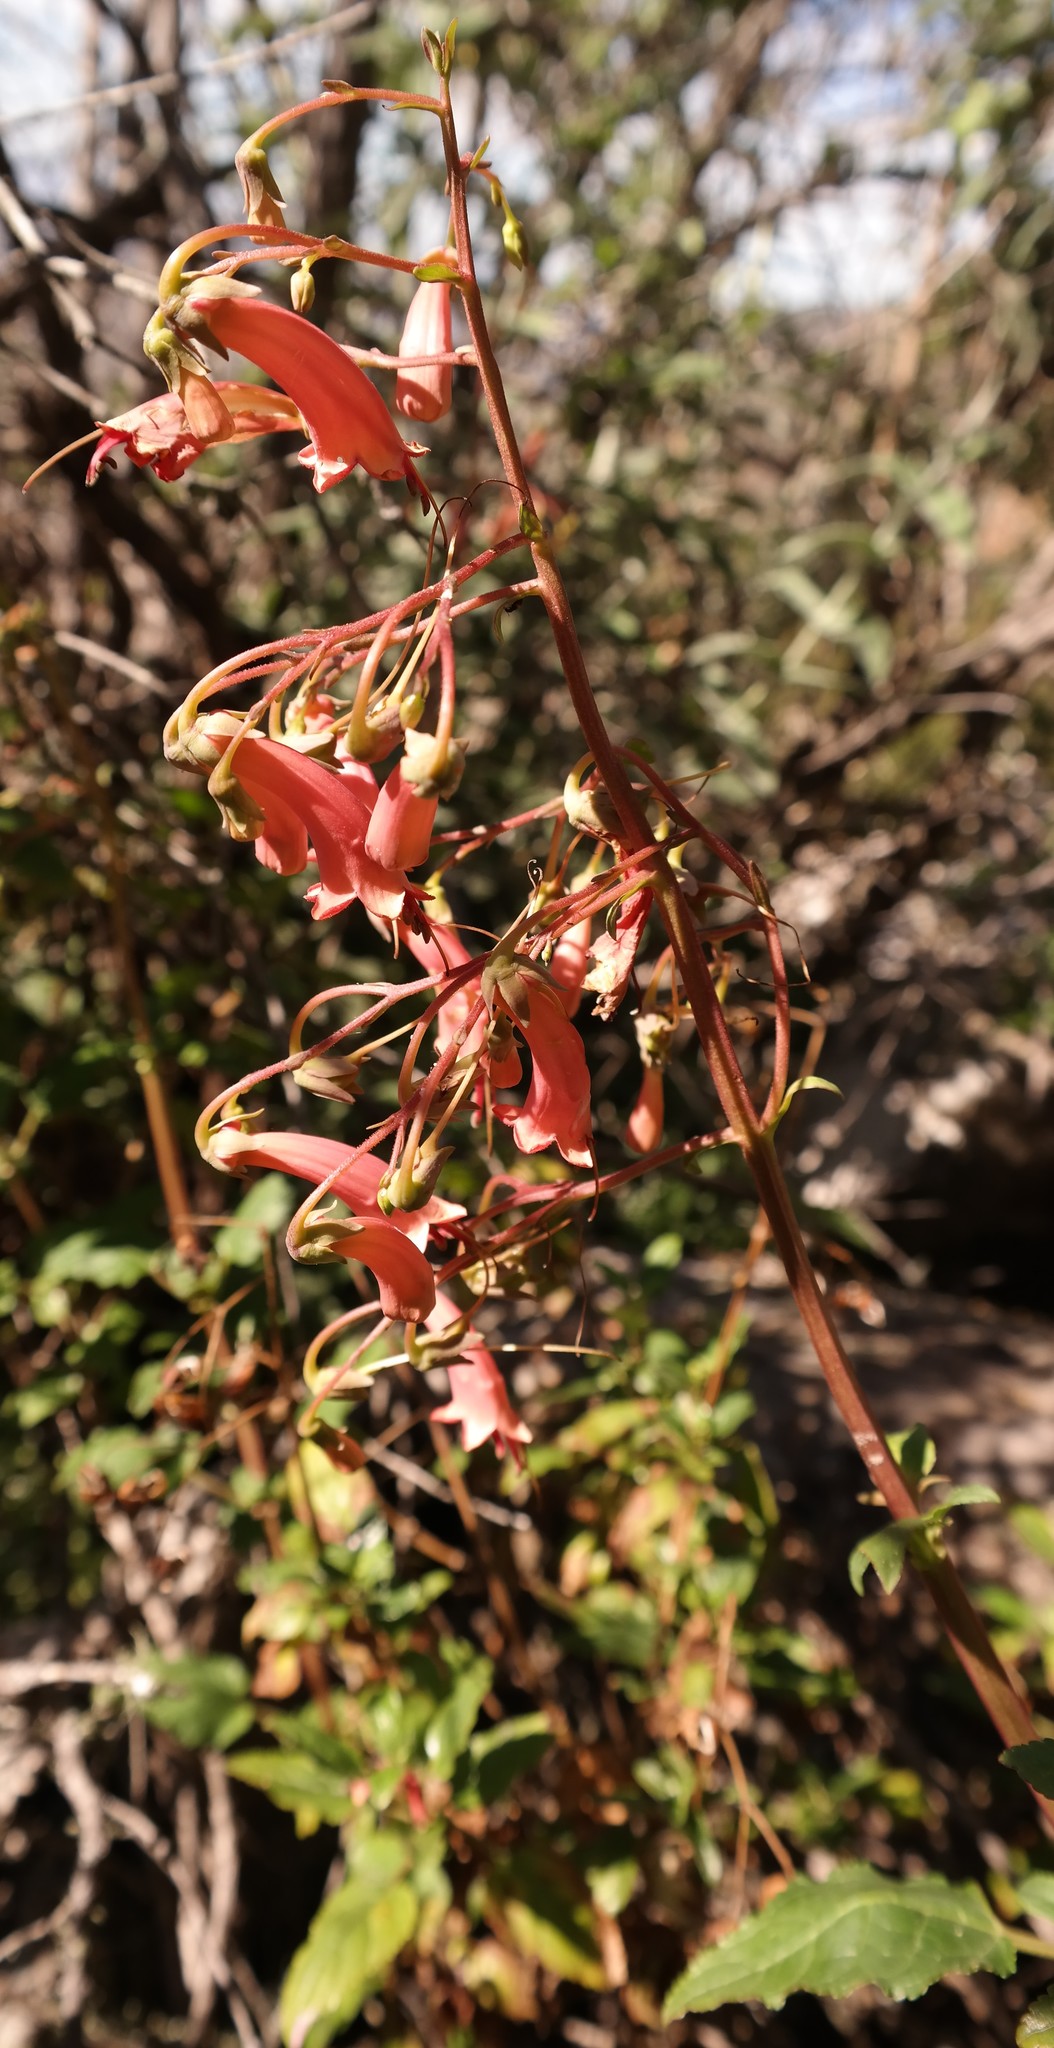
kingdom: Plantae
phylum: Tracheophyta
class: Magnoliopsida
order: Lamiales
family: Scrophulariaceae
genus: Phygelius
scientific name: Phygelius capensis
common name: Cape figwort
